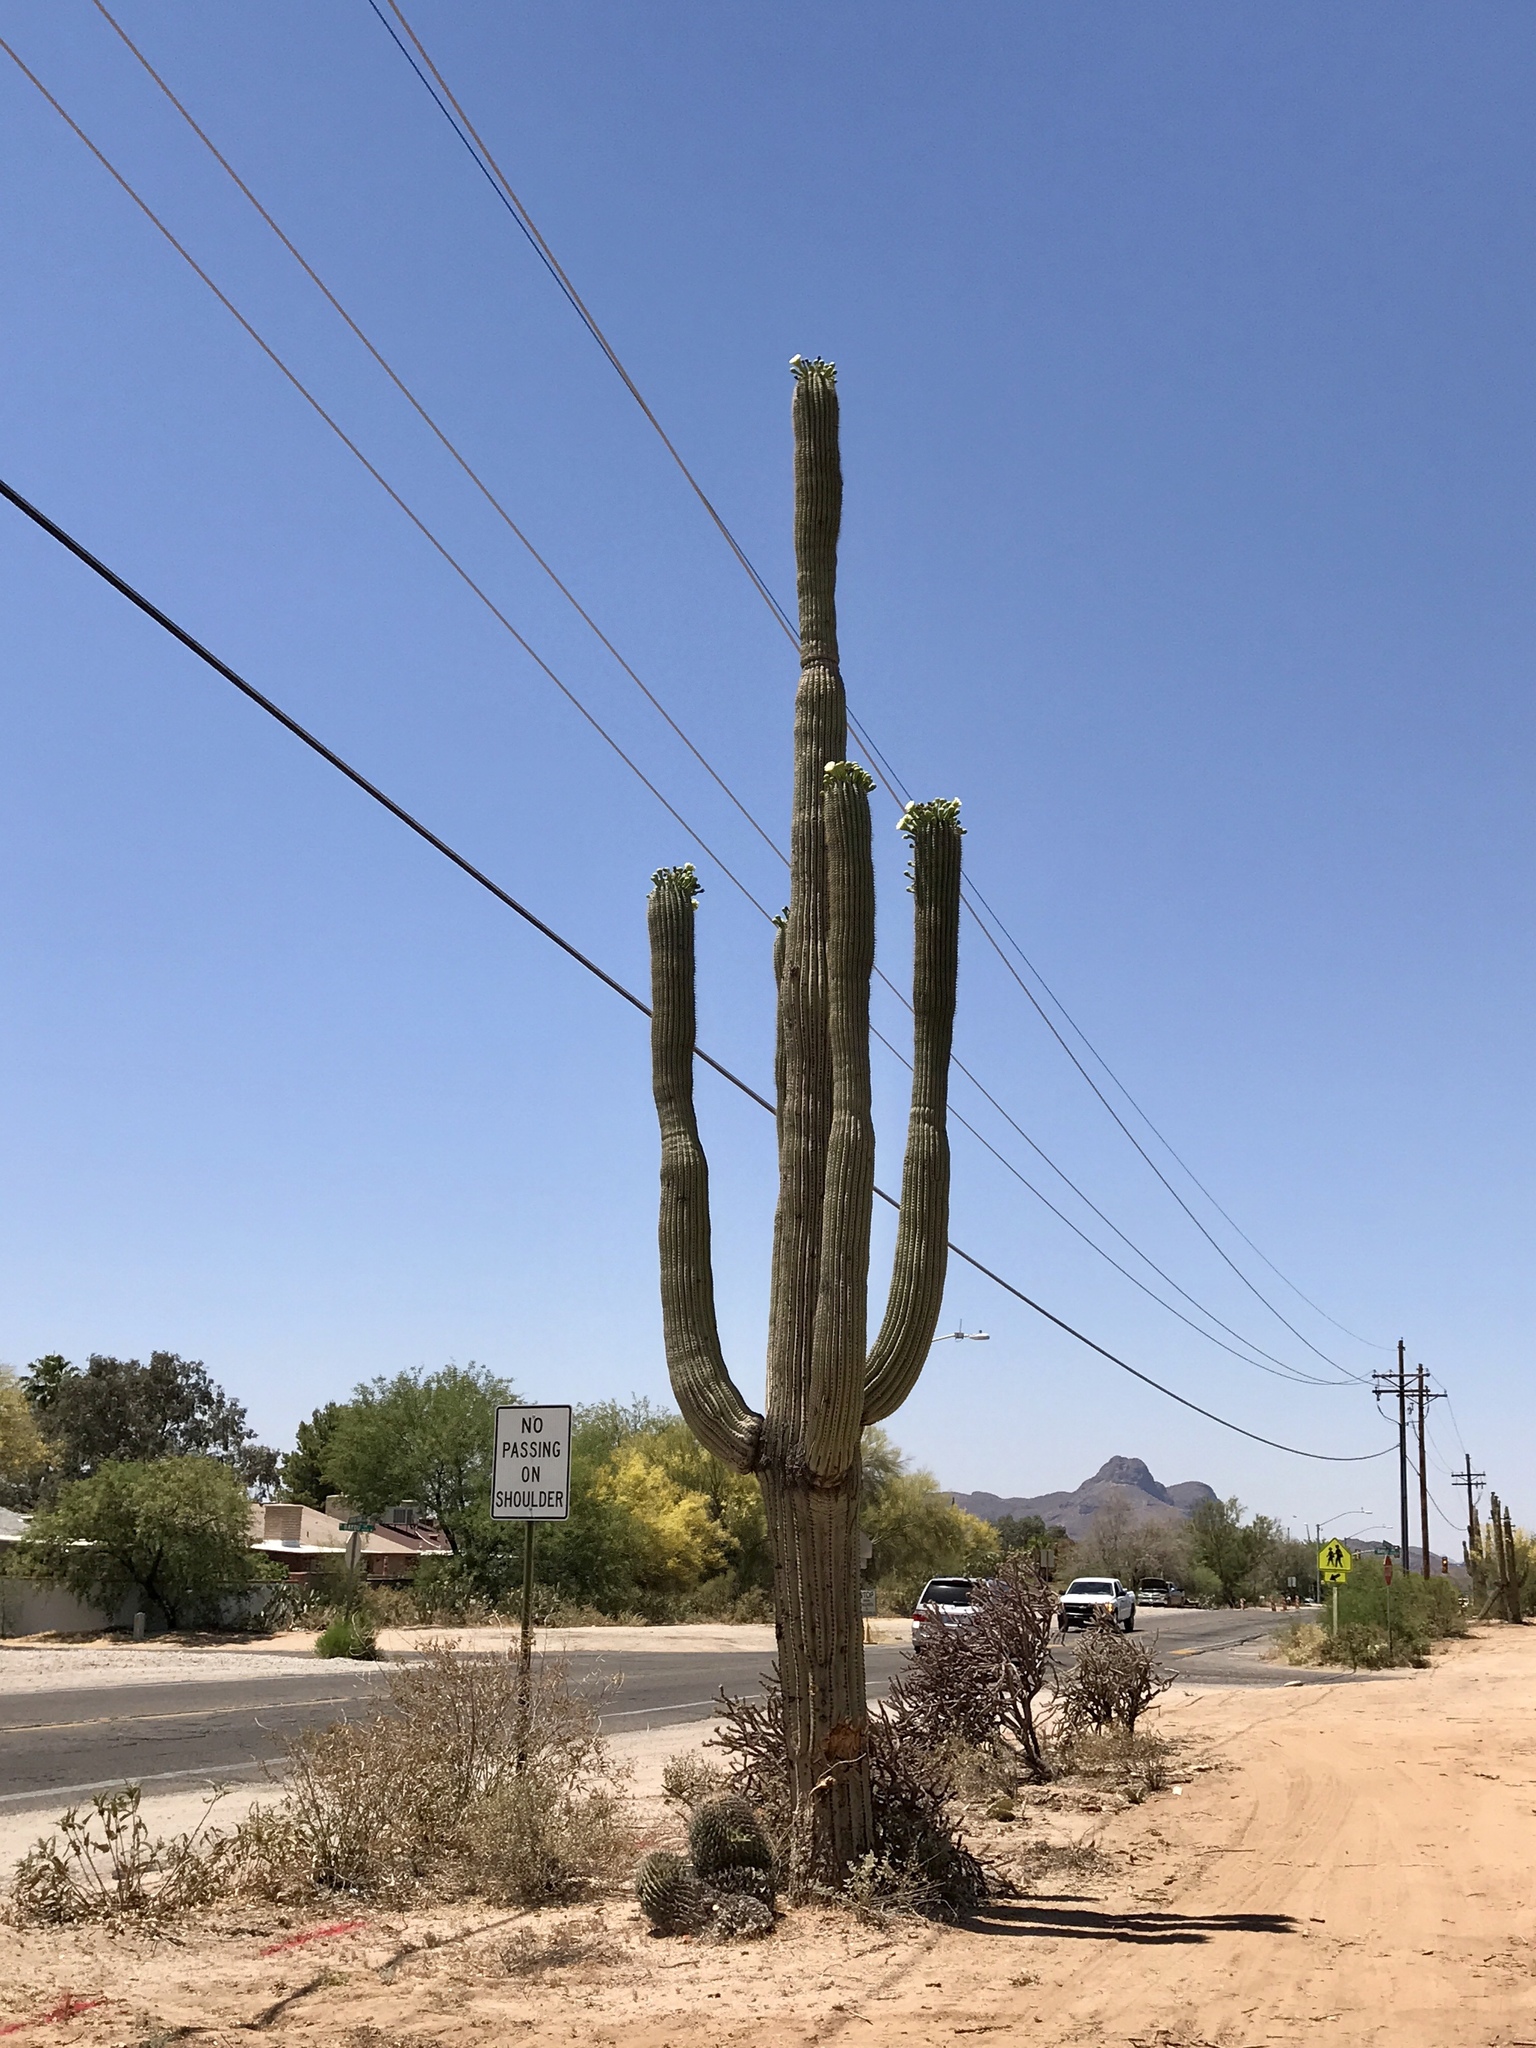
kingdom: Plantae
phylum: Tracheophyta
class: Magnoliopsida
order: Caryophyllales
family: Cactaceae
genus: Carnegiea
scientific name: Carnegiea gigantea
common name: Saguaro
